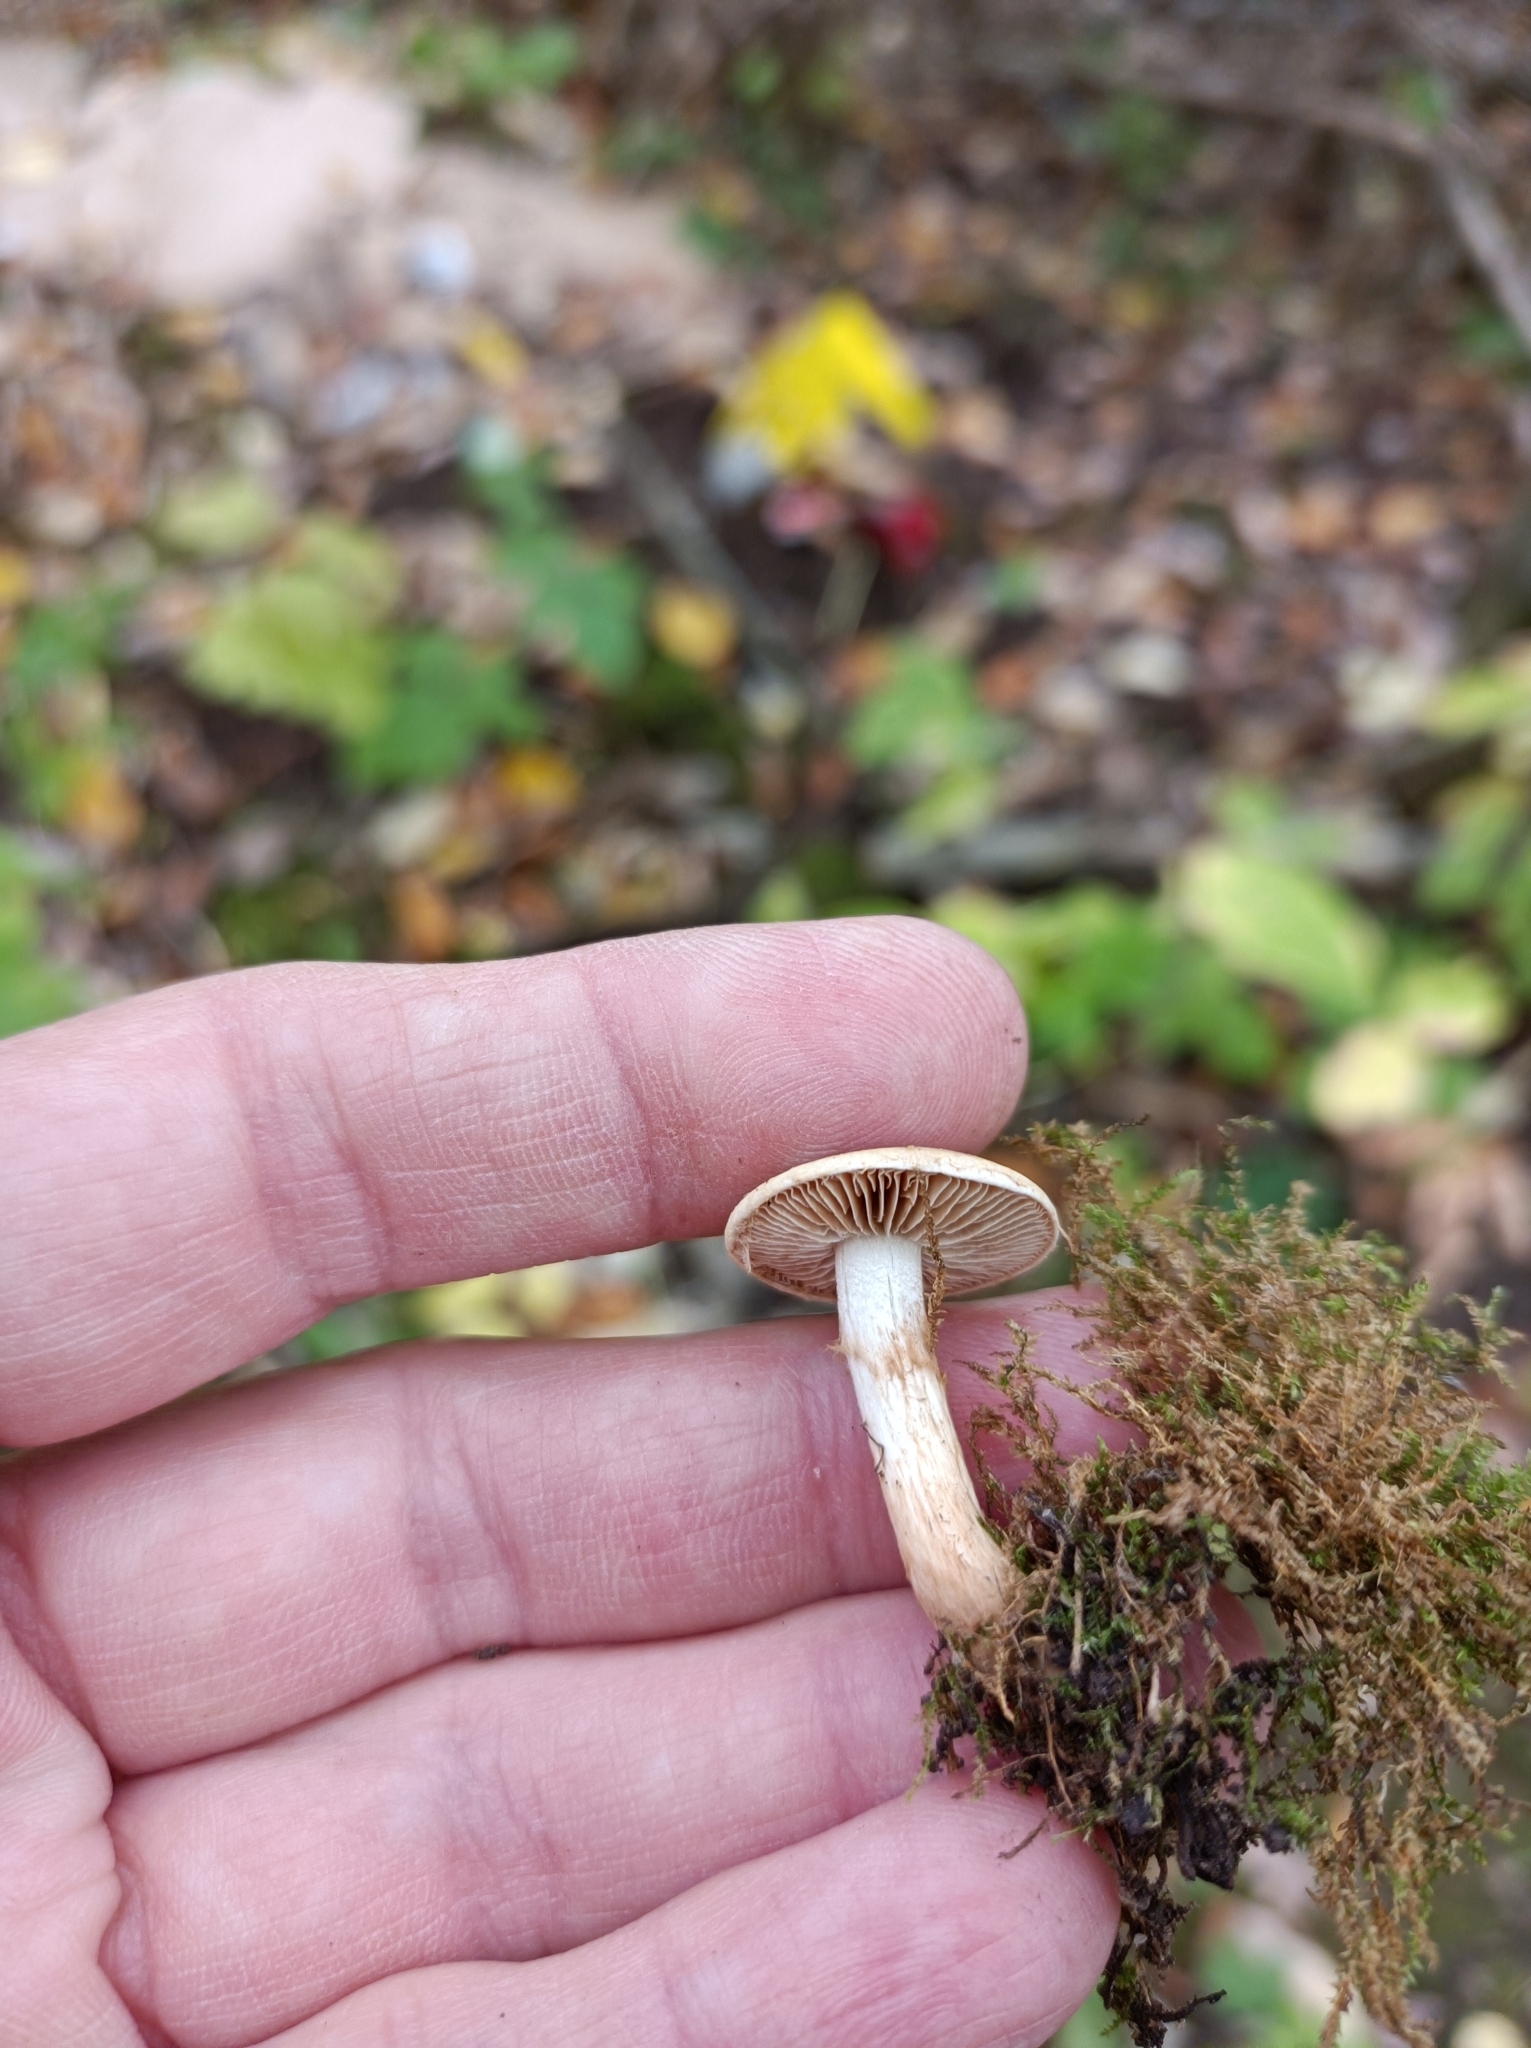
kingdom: Fungi
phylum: Basidiomycota
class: Agaricomycetes
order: Agaricales
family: Hymenogastraceae
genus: Hebeloma
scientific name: Hebeloma mesophaeum
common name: Veiled poisonpie
